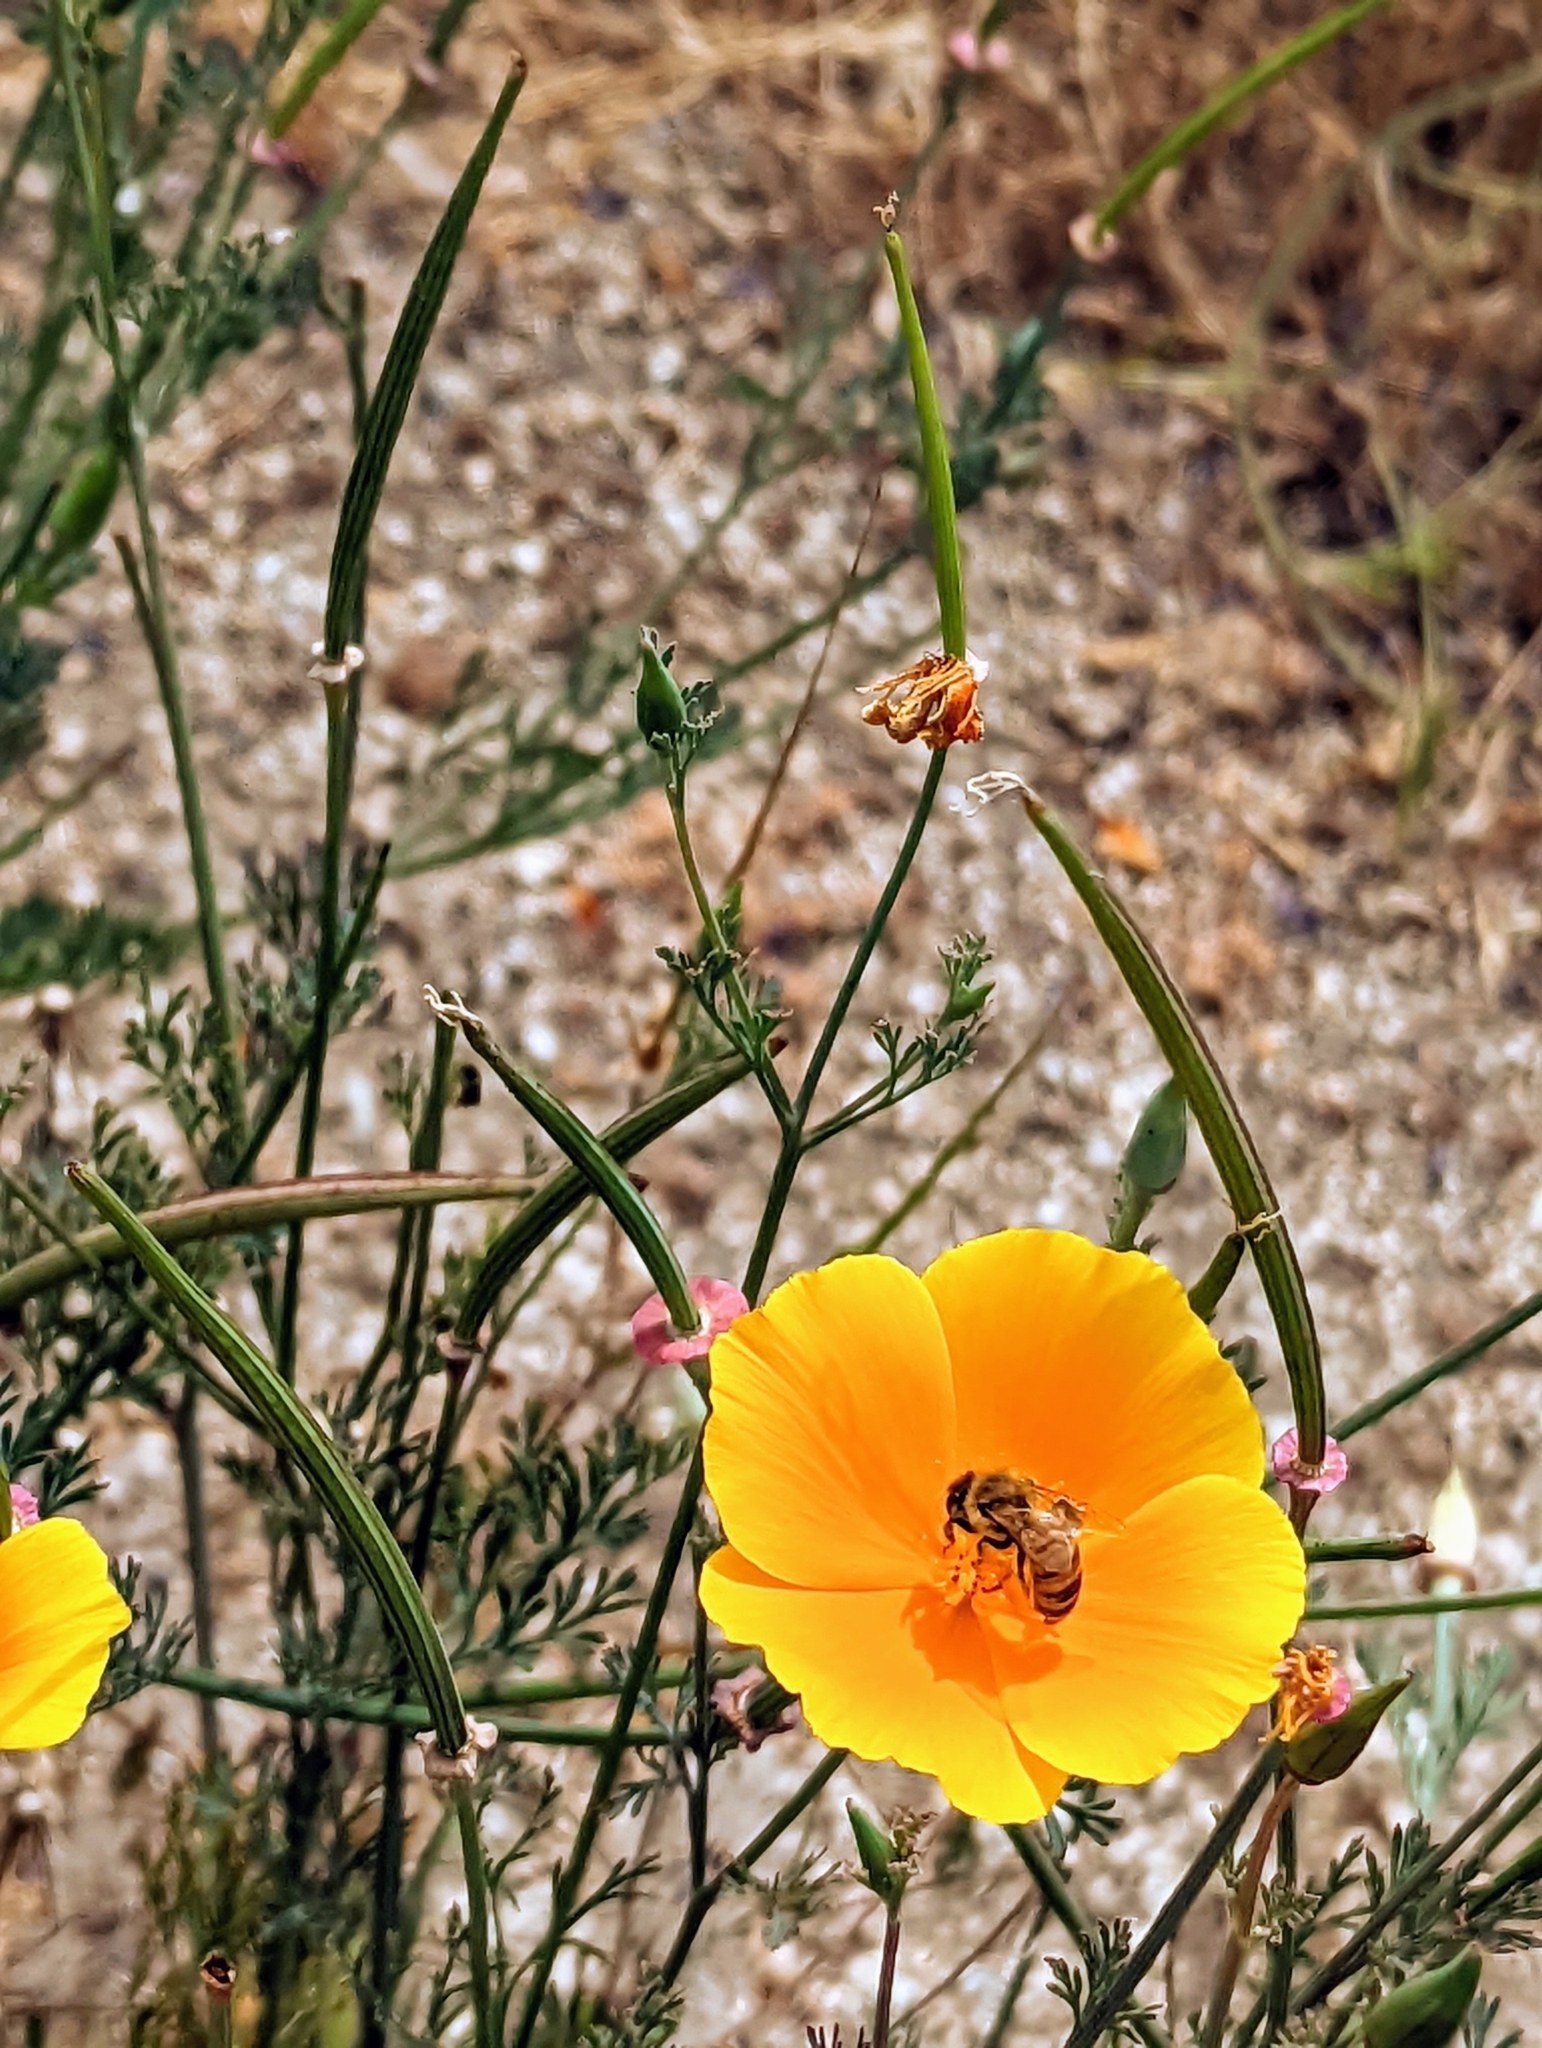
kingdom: Plantae
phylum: Tracheophyta
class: Magnoliopsida
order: Ranunculales
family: Papaveraceae
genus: Eschscholzia
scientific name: Eschscholzia californica
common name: California poppy
